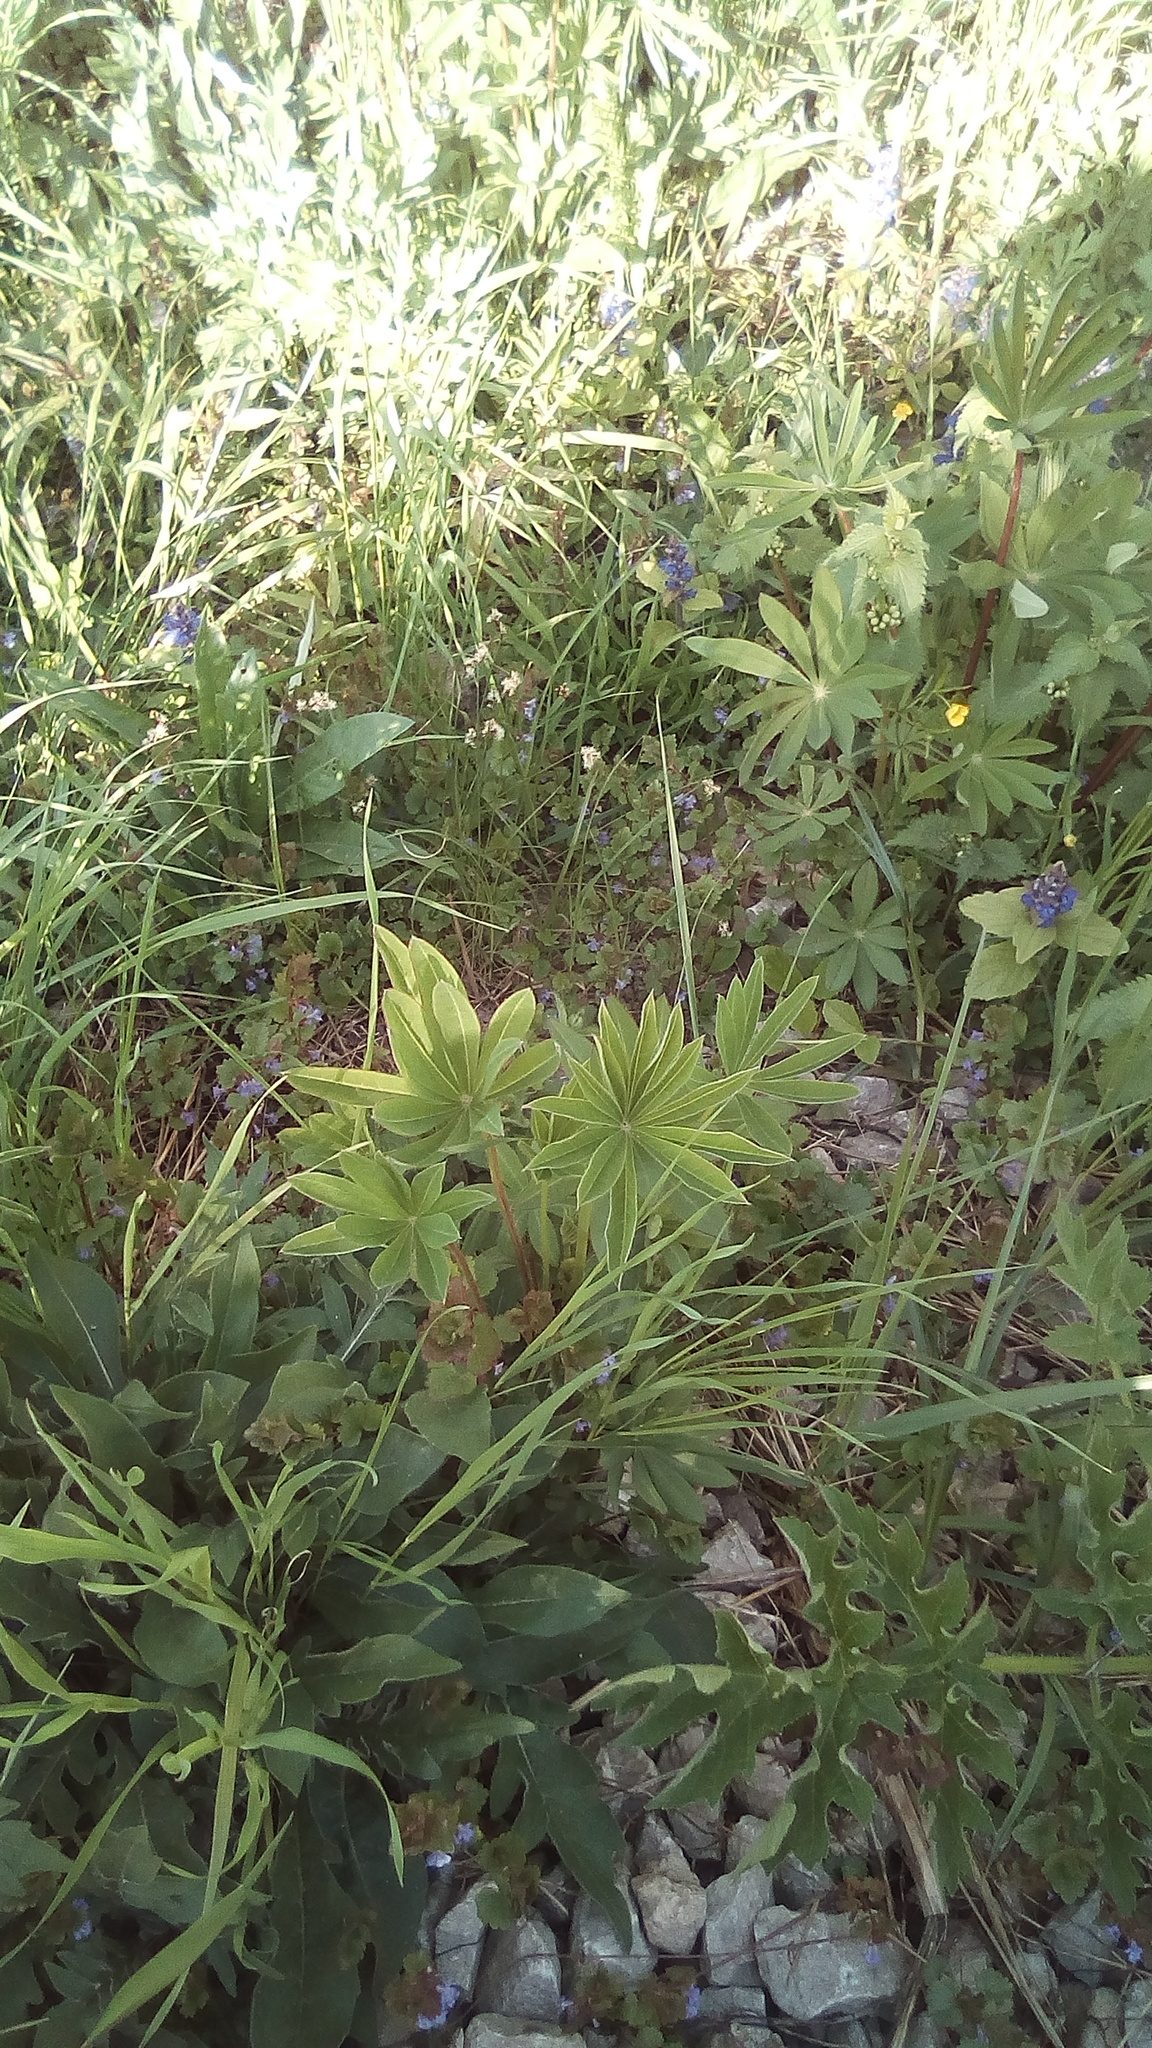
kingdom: Plantae
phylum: Tracheophyta
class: Magnoliopsida
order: Fabales
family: Fabaceae
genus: Lupinus
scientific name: Lupinus polyphyllus
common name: Garden lupin
